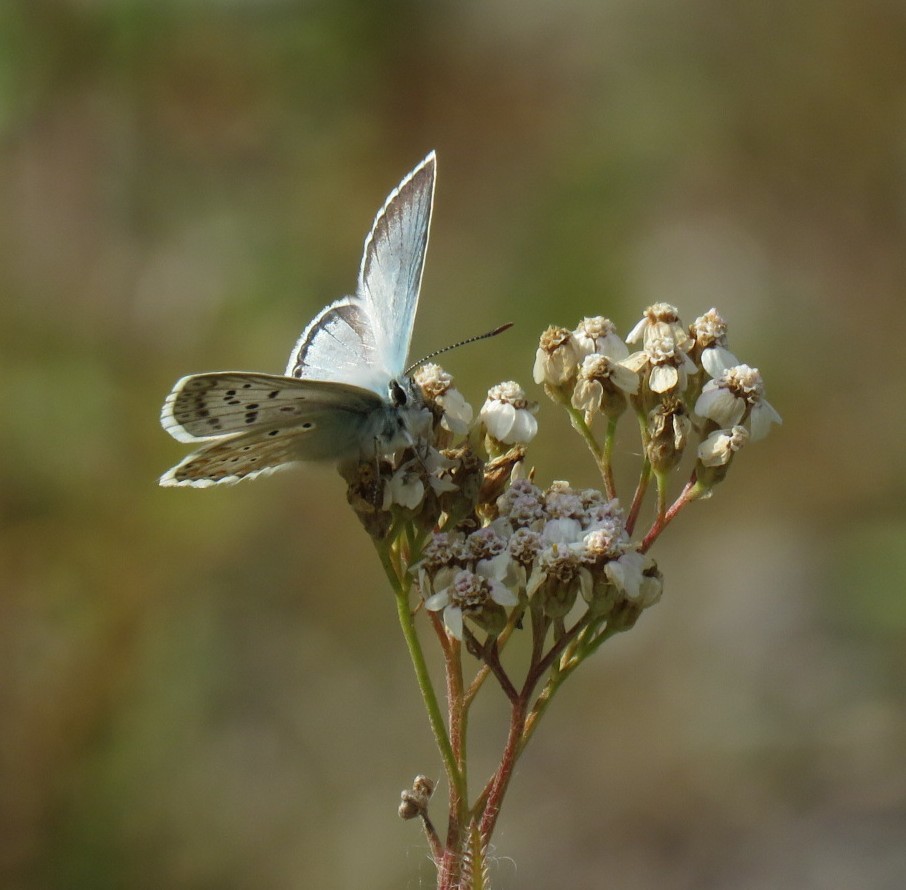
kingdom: Animalia
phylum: Arthropoda
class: Insecta
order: Lepidoptera
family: Lycaenidae
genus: Lysandra
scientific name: Lysandra coridon
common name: Chalkhill blue
